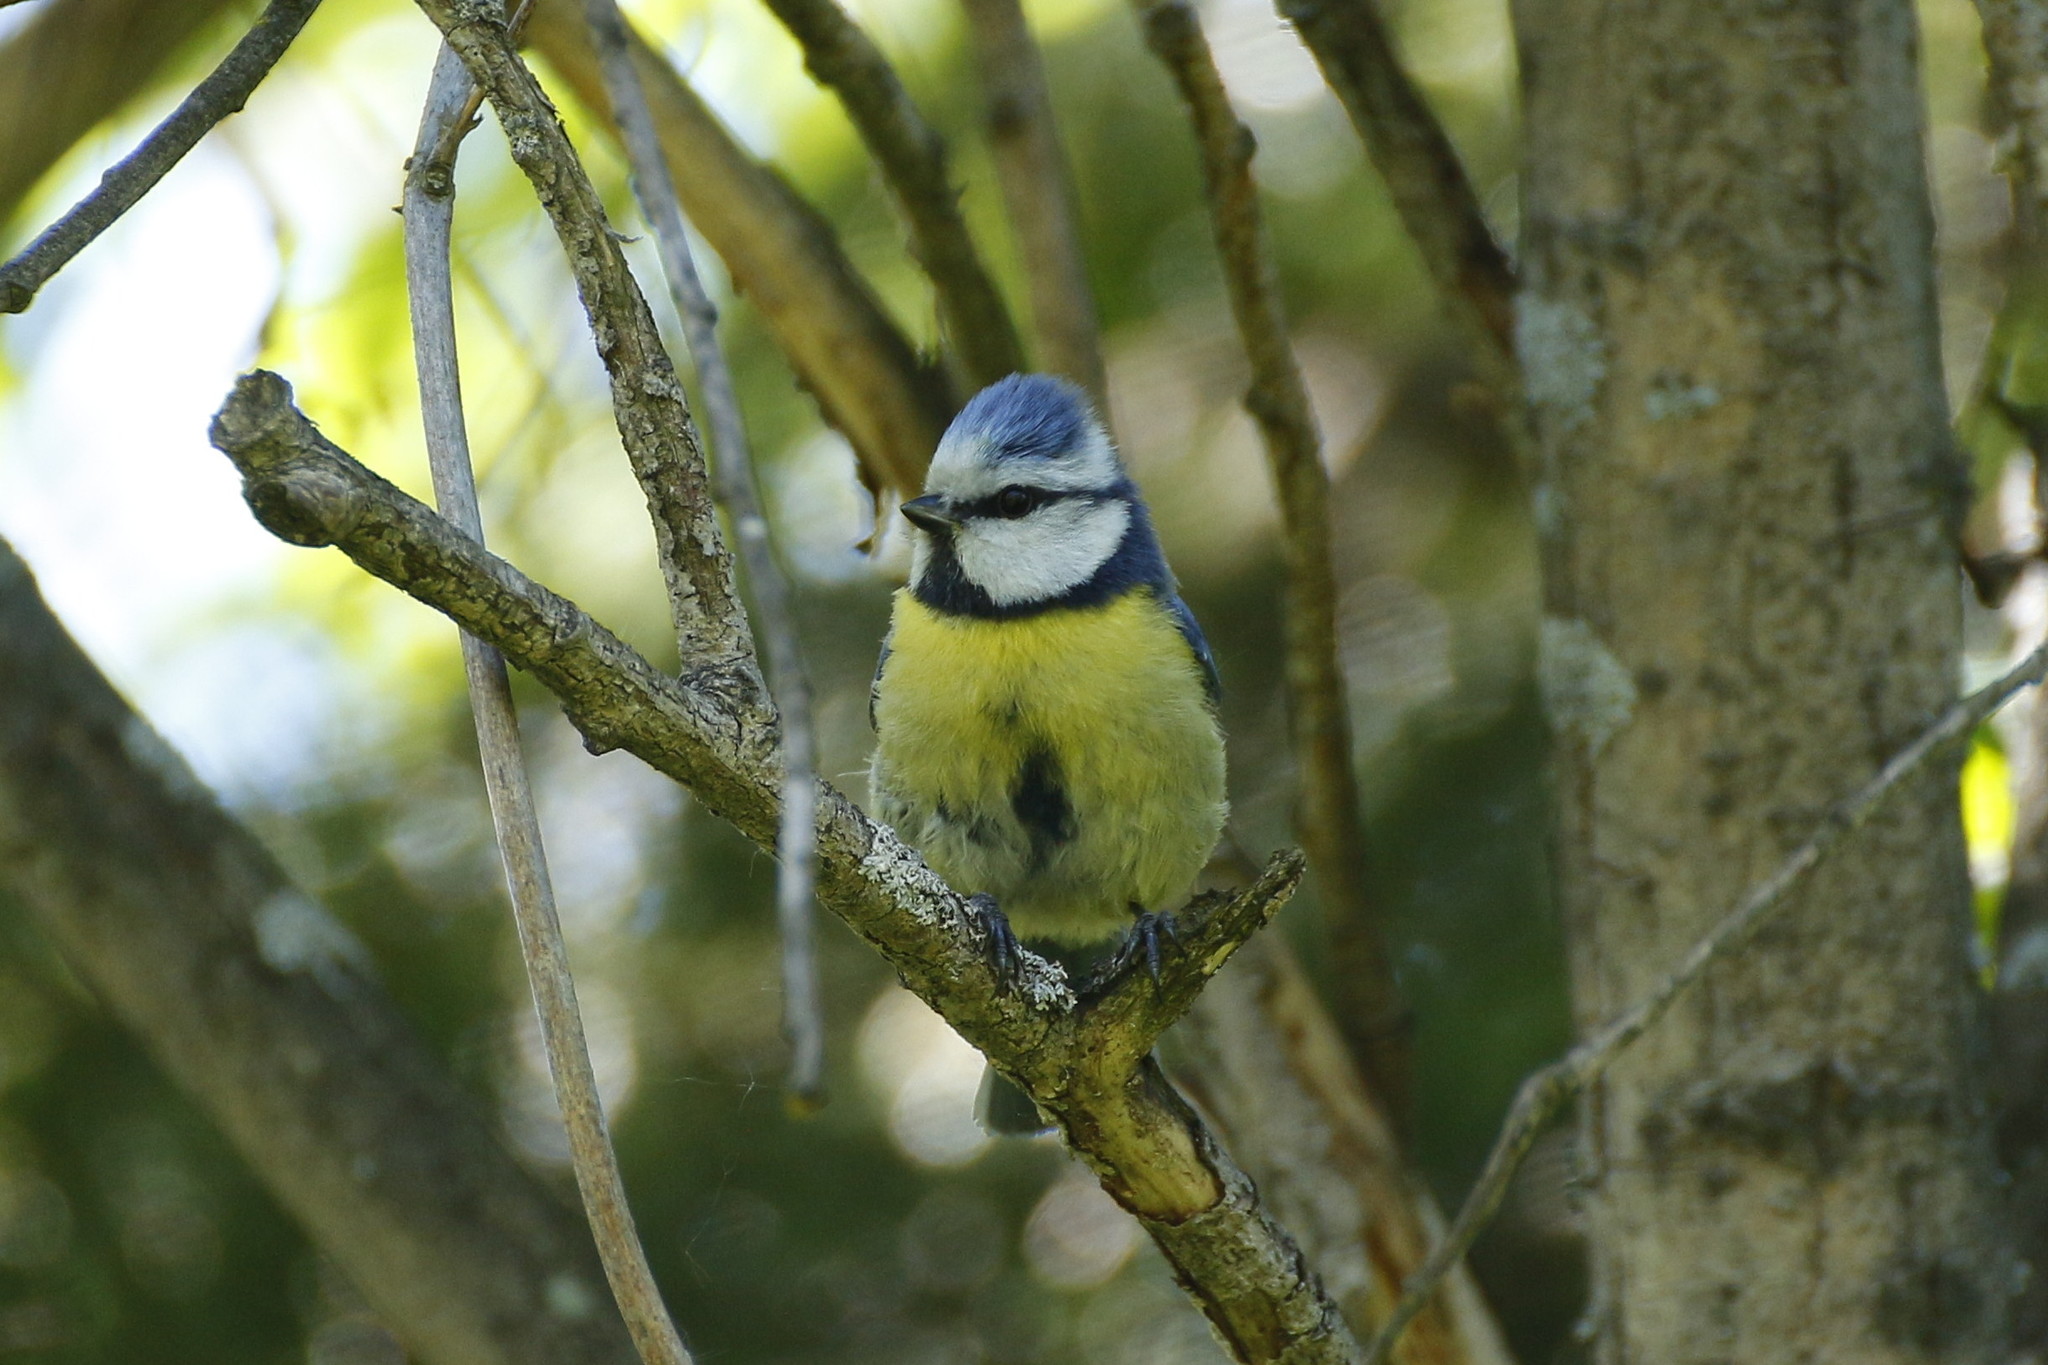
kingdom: Animalia
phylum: Chordata
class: Aves
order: Passeriformes
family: Paridae
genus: Cyanistes
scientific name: Cyanistes caeruleus
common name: Eurasian blue tit
